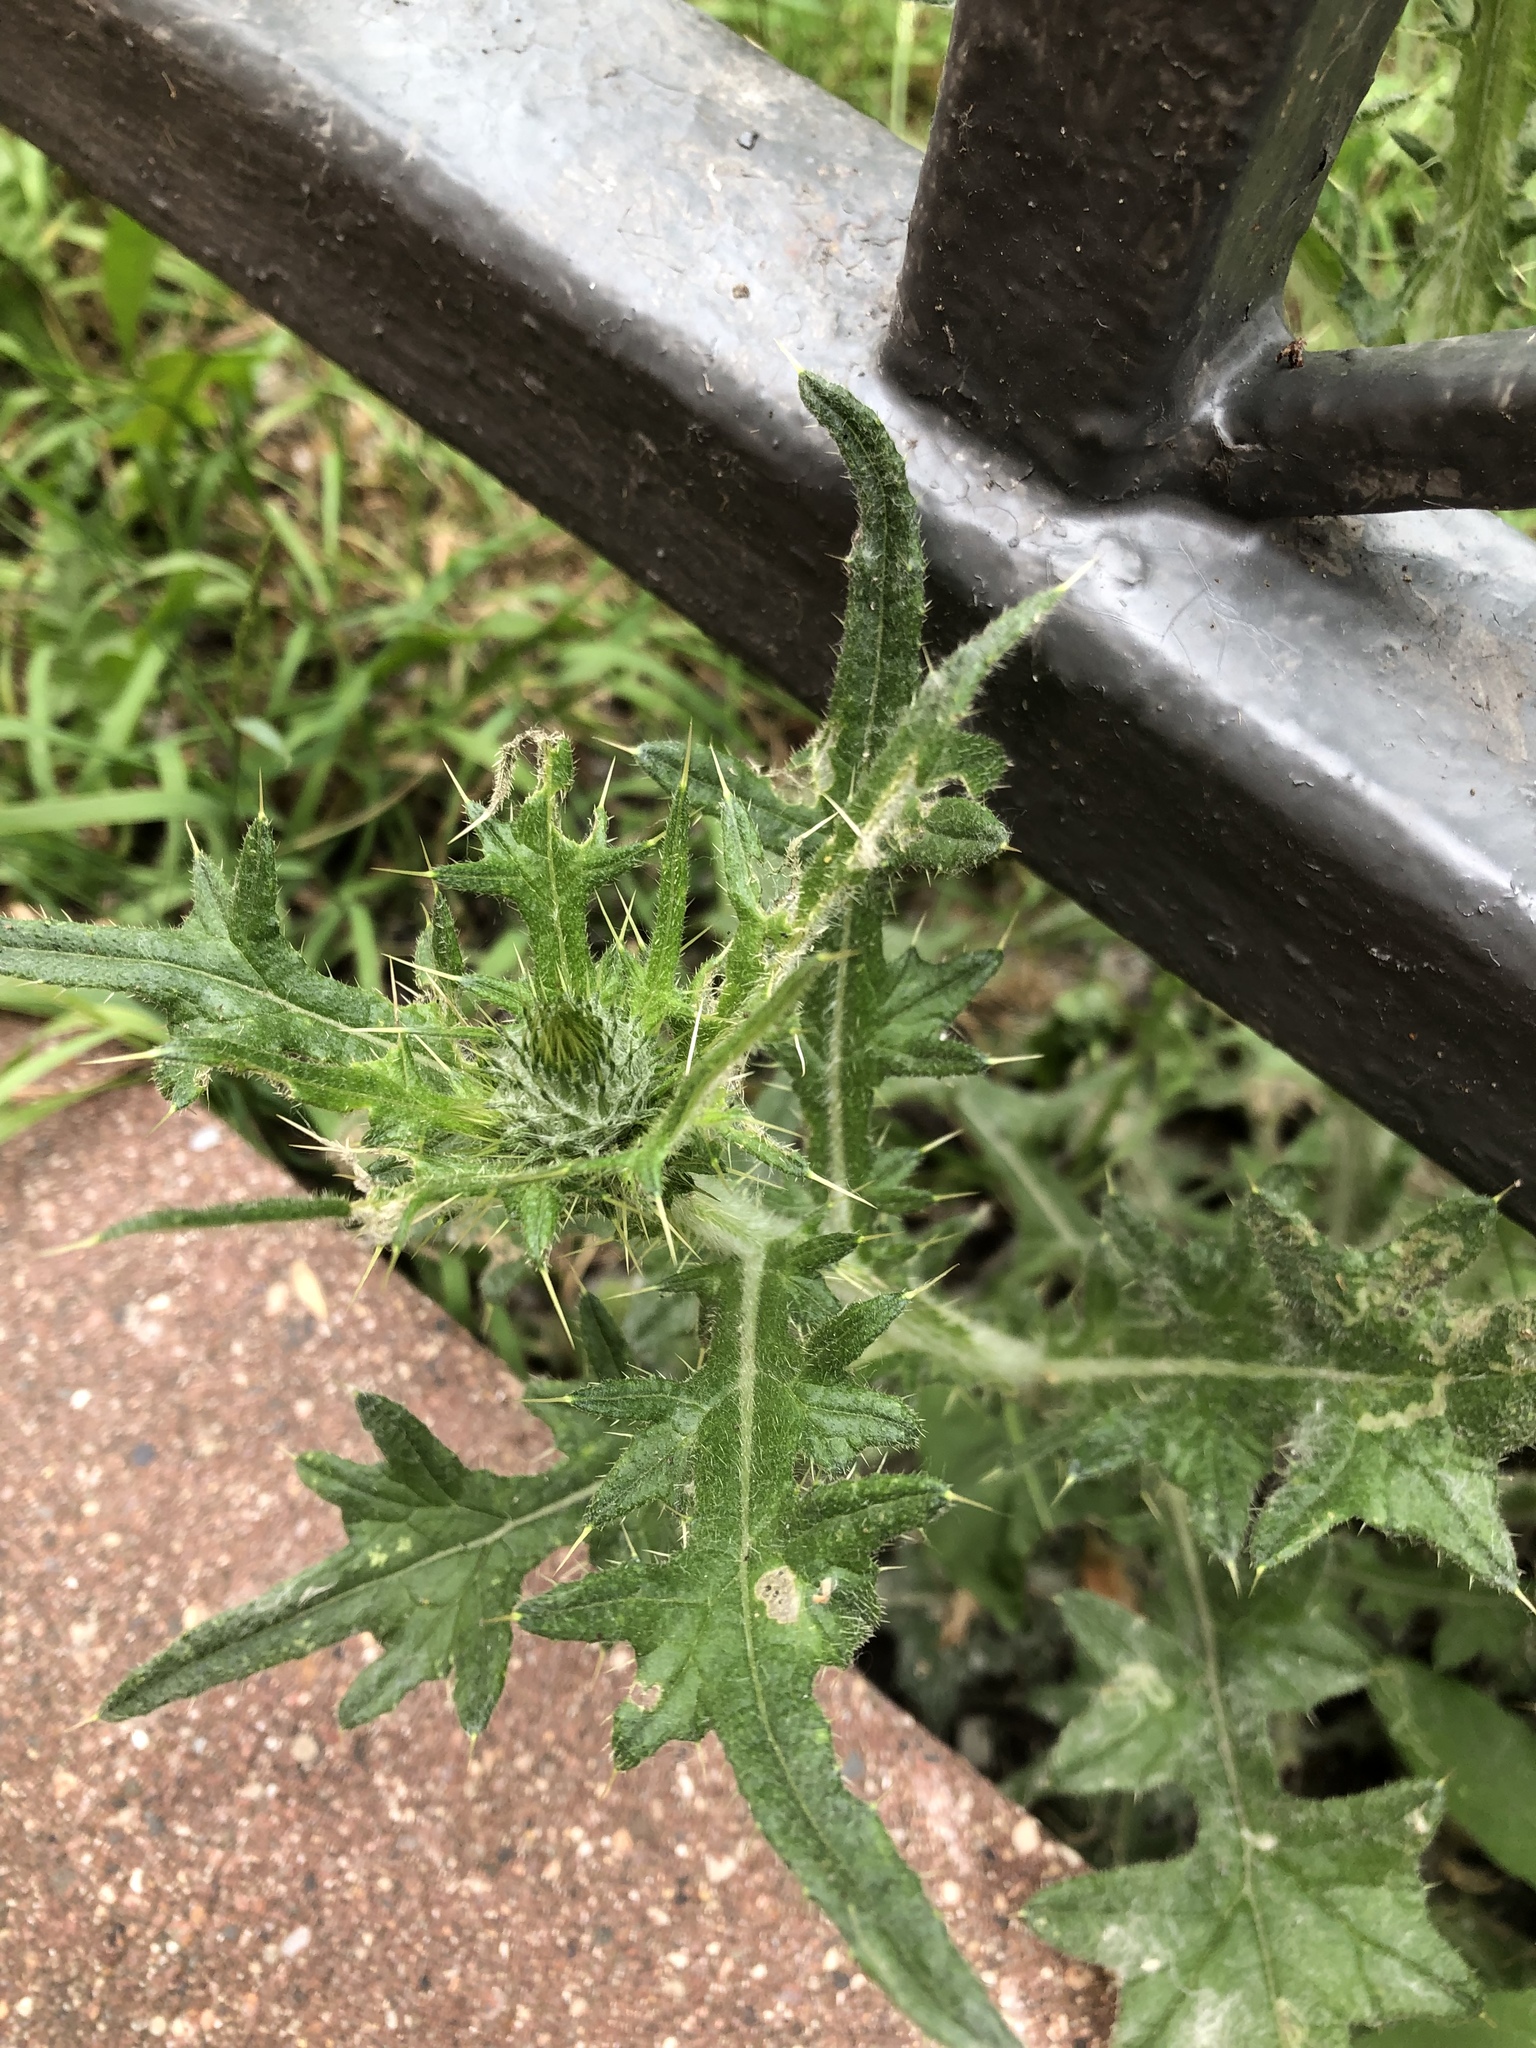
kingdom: Plantae
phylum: Tracheophyta
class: Magnoliopsida
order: Asterales
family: Asteraceae
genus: Cirsium
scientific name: Cirsium vulgare
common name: Bull thistle
